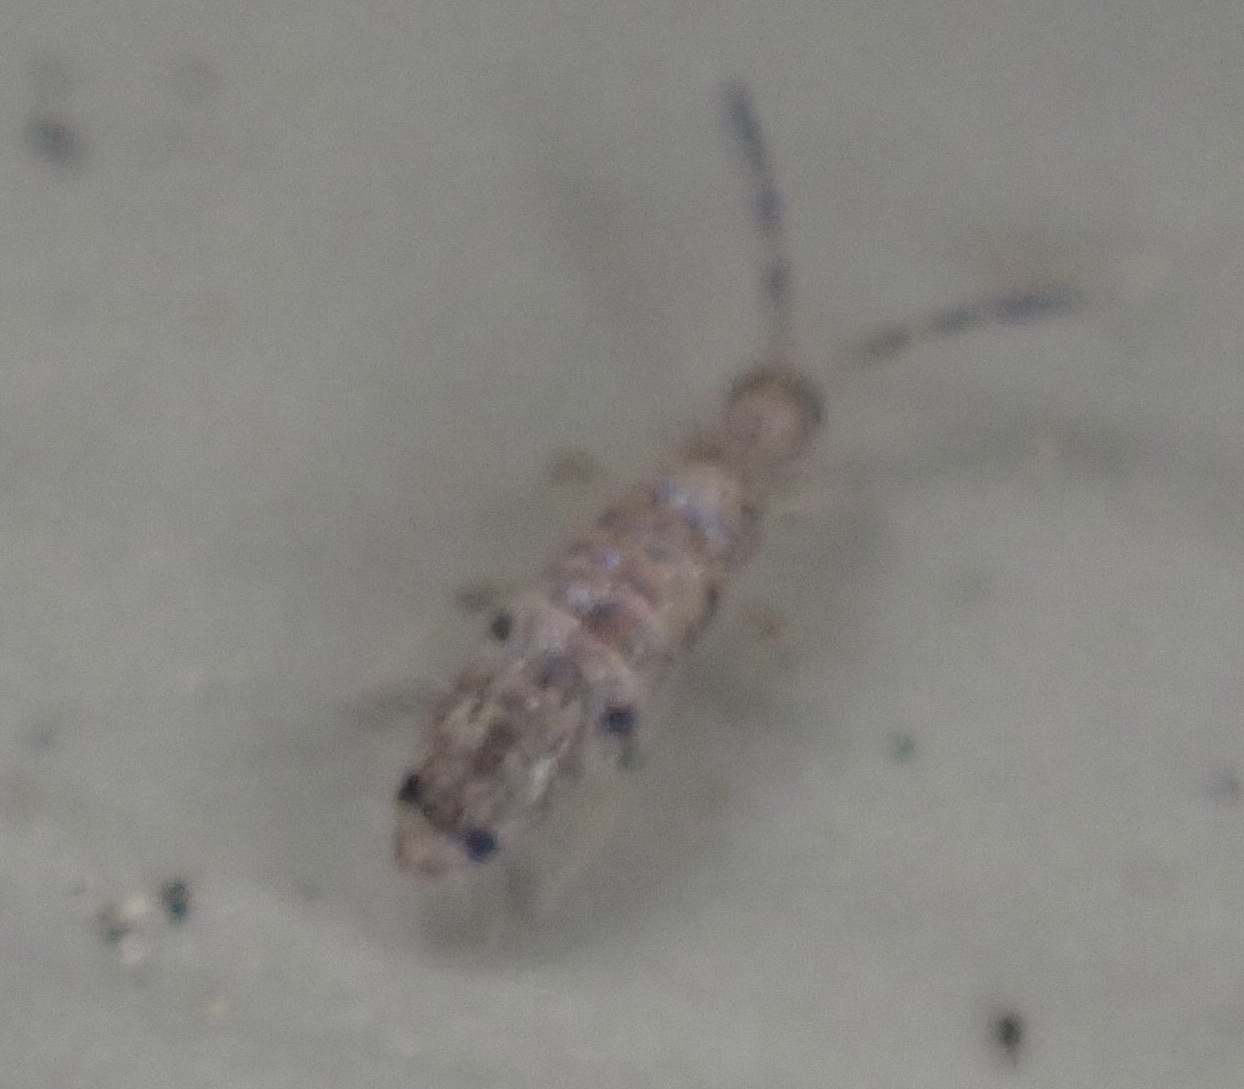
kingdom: Animalia
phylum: Arthropoda
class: Collembola
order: Entomobryomorpha
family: Entomobryidae
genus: Willowsia
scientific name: Willowsia nigromaculata
